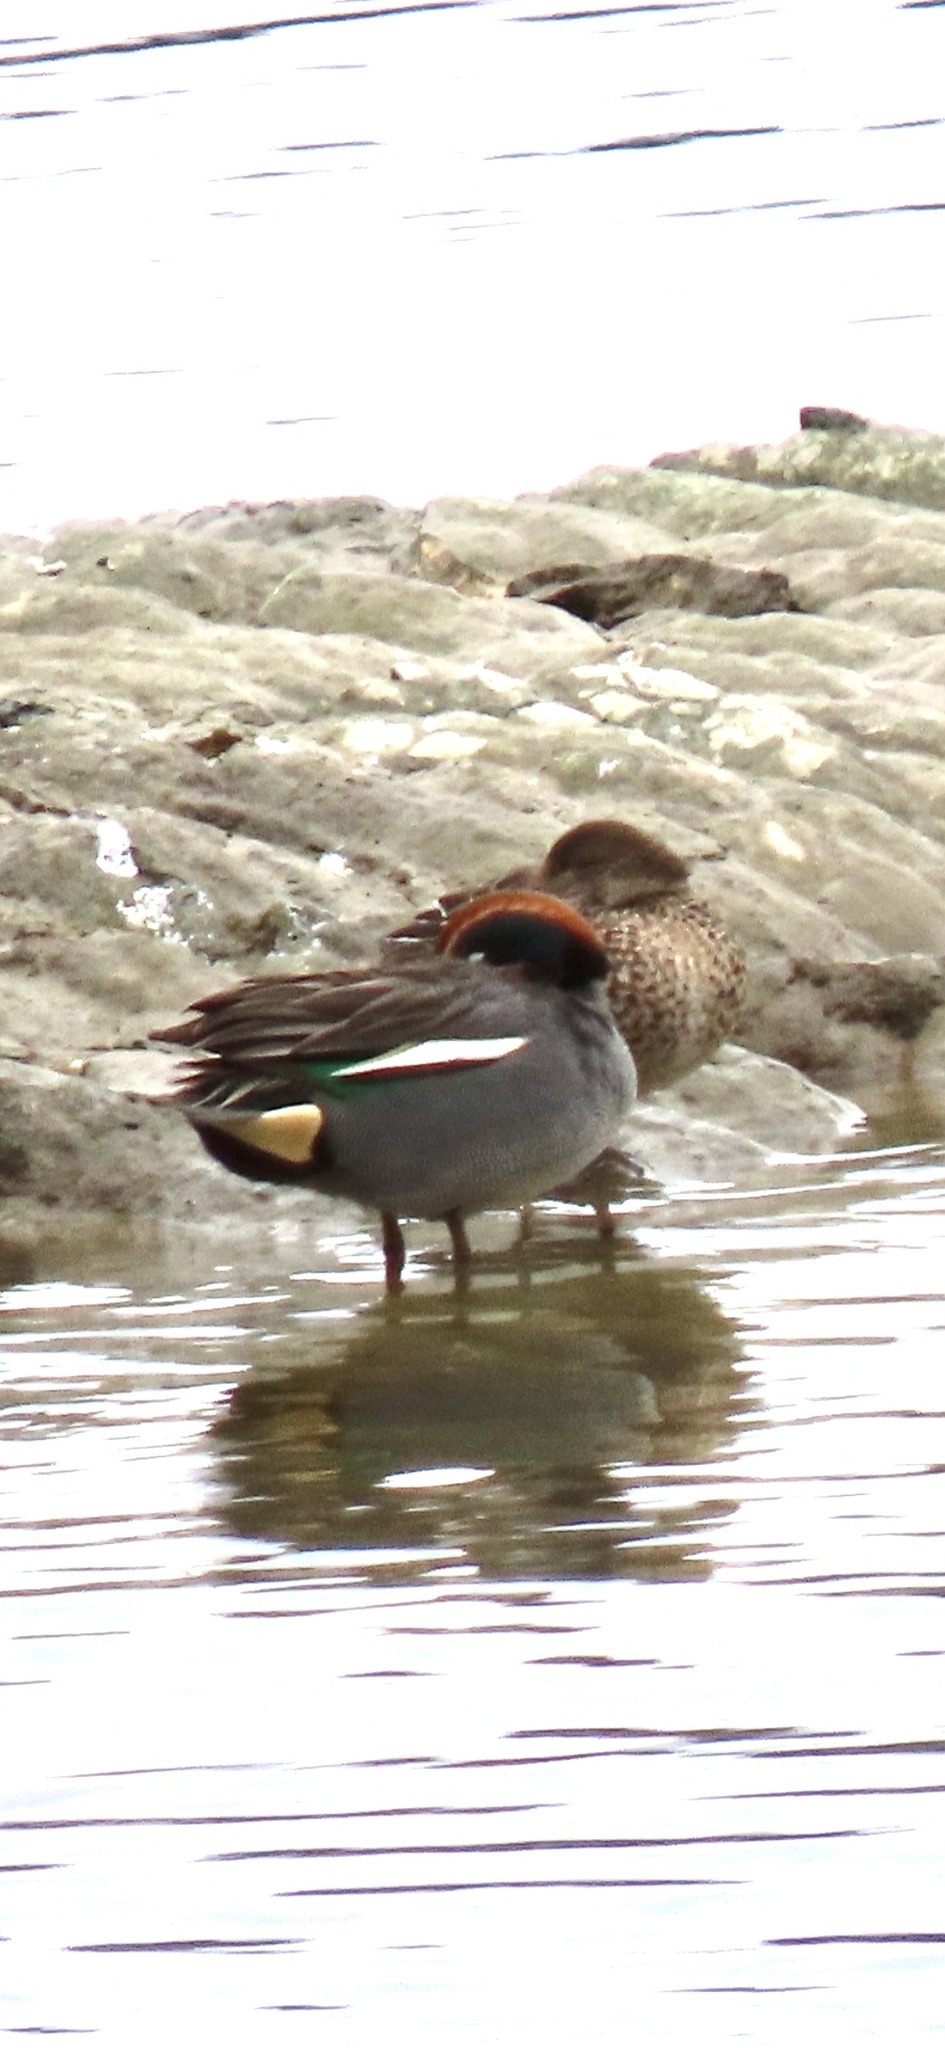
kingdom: Animalia
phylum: Chordata
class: Aves
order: Anseriformes
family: Anatidae
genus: Anas
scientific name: Anas crecca
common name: Eurasian teal
